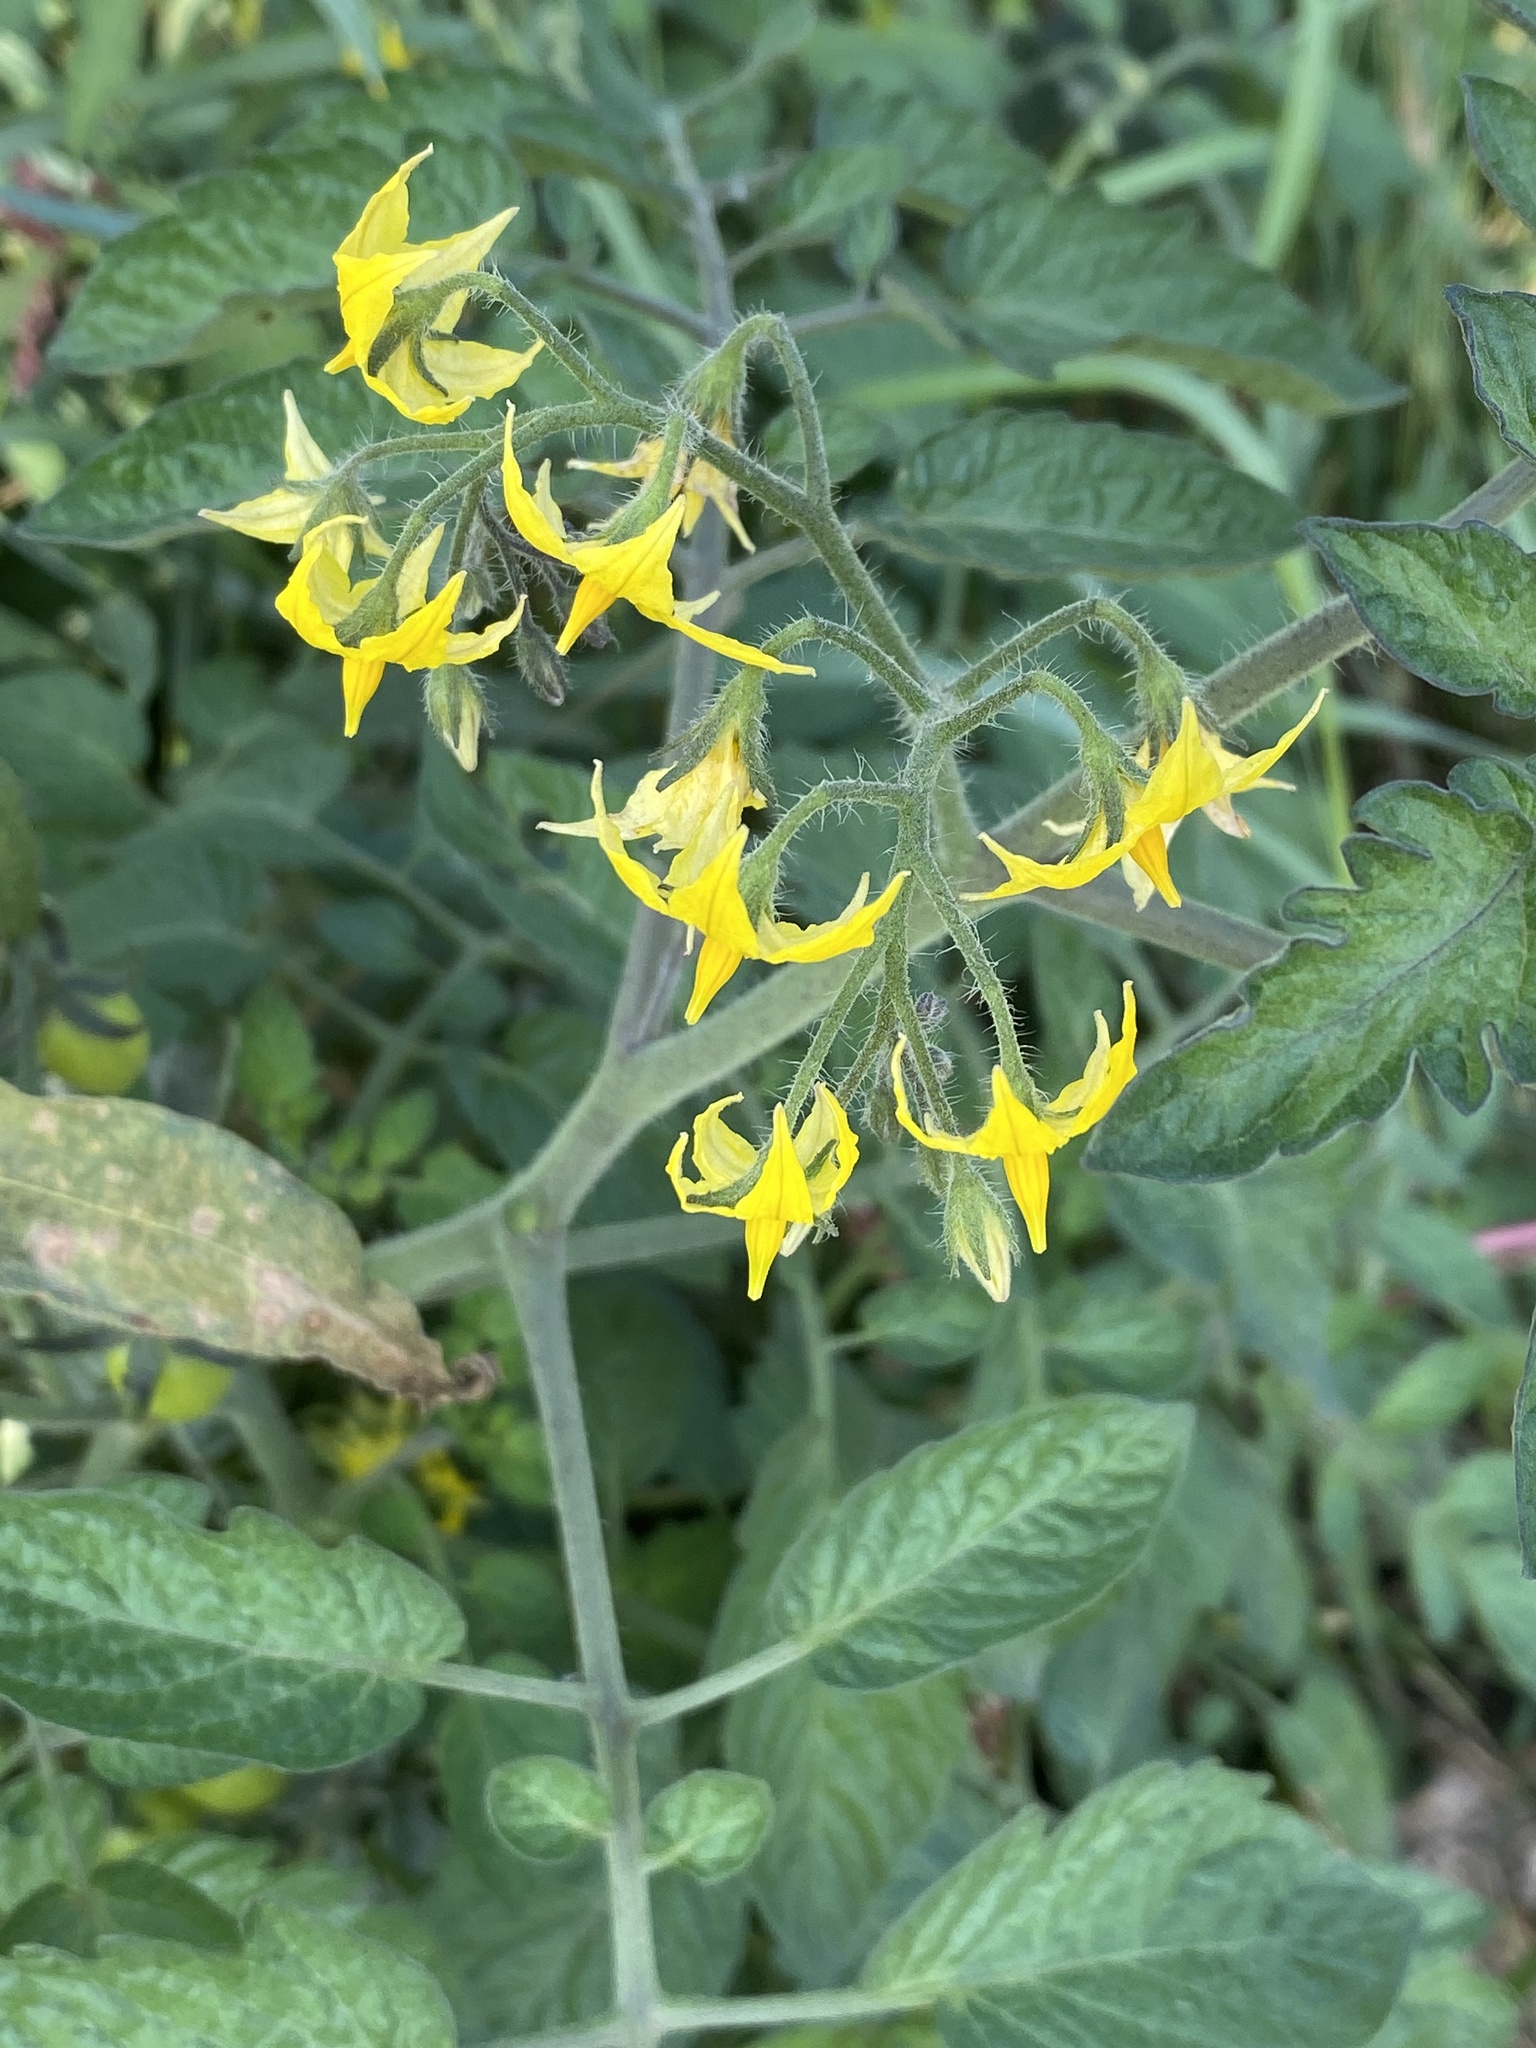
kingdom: Plantae
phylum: Tracheophyta
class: Magnoliopsida
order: Solanales
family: Solanaceae
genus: Solanum
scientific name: Solanum lycopersicum
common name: Garden tomato
